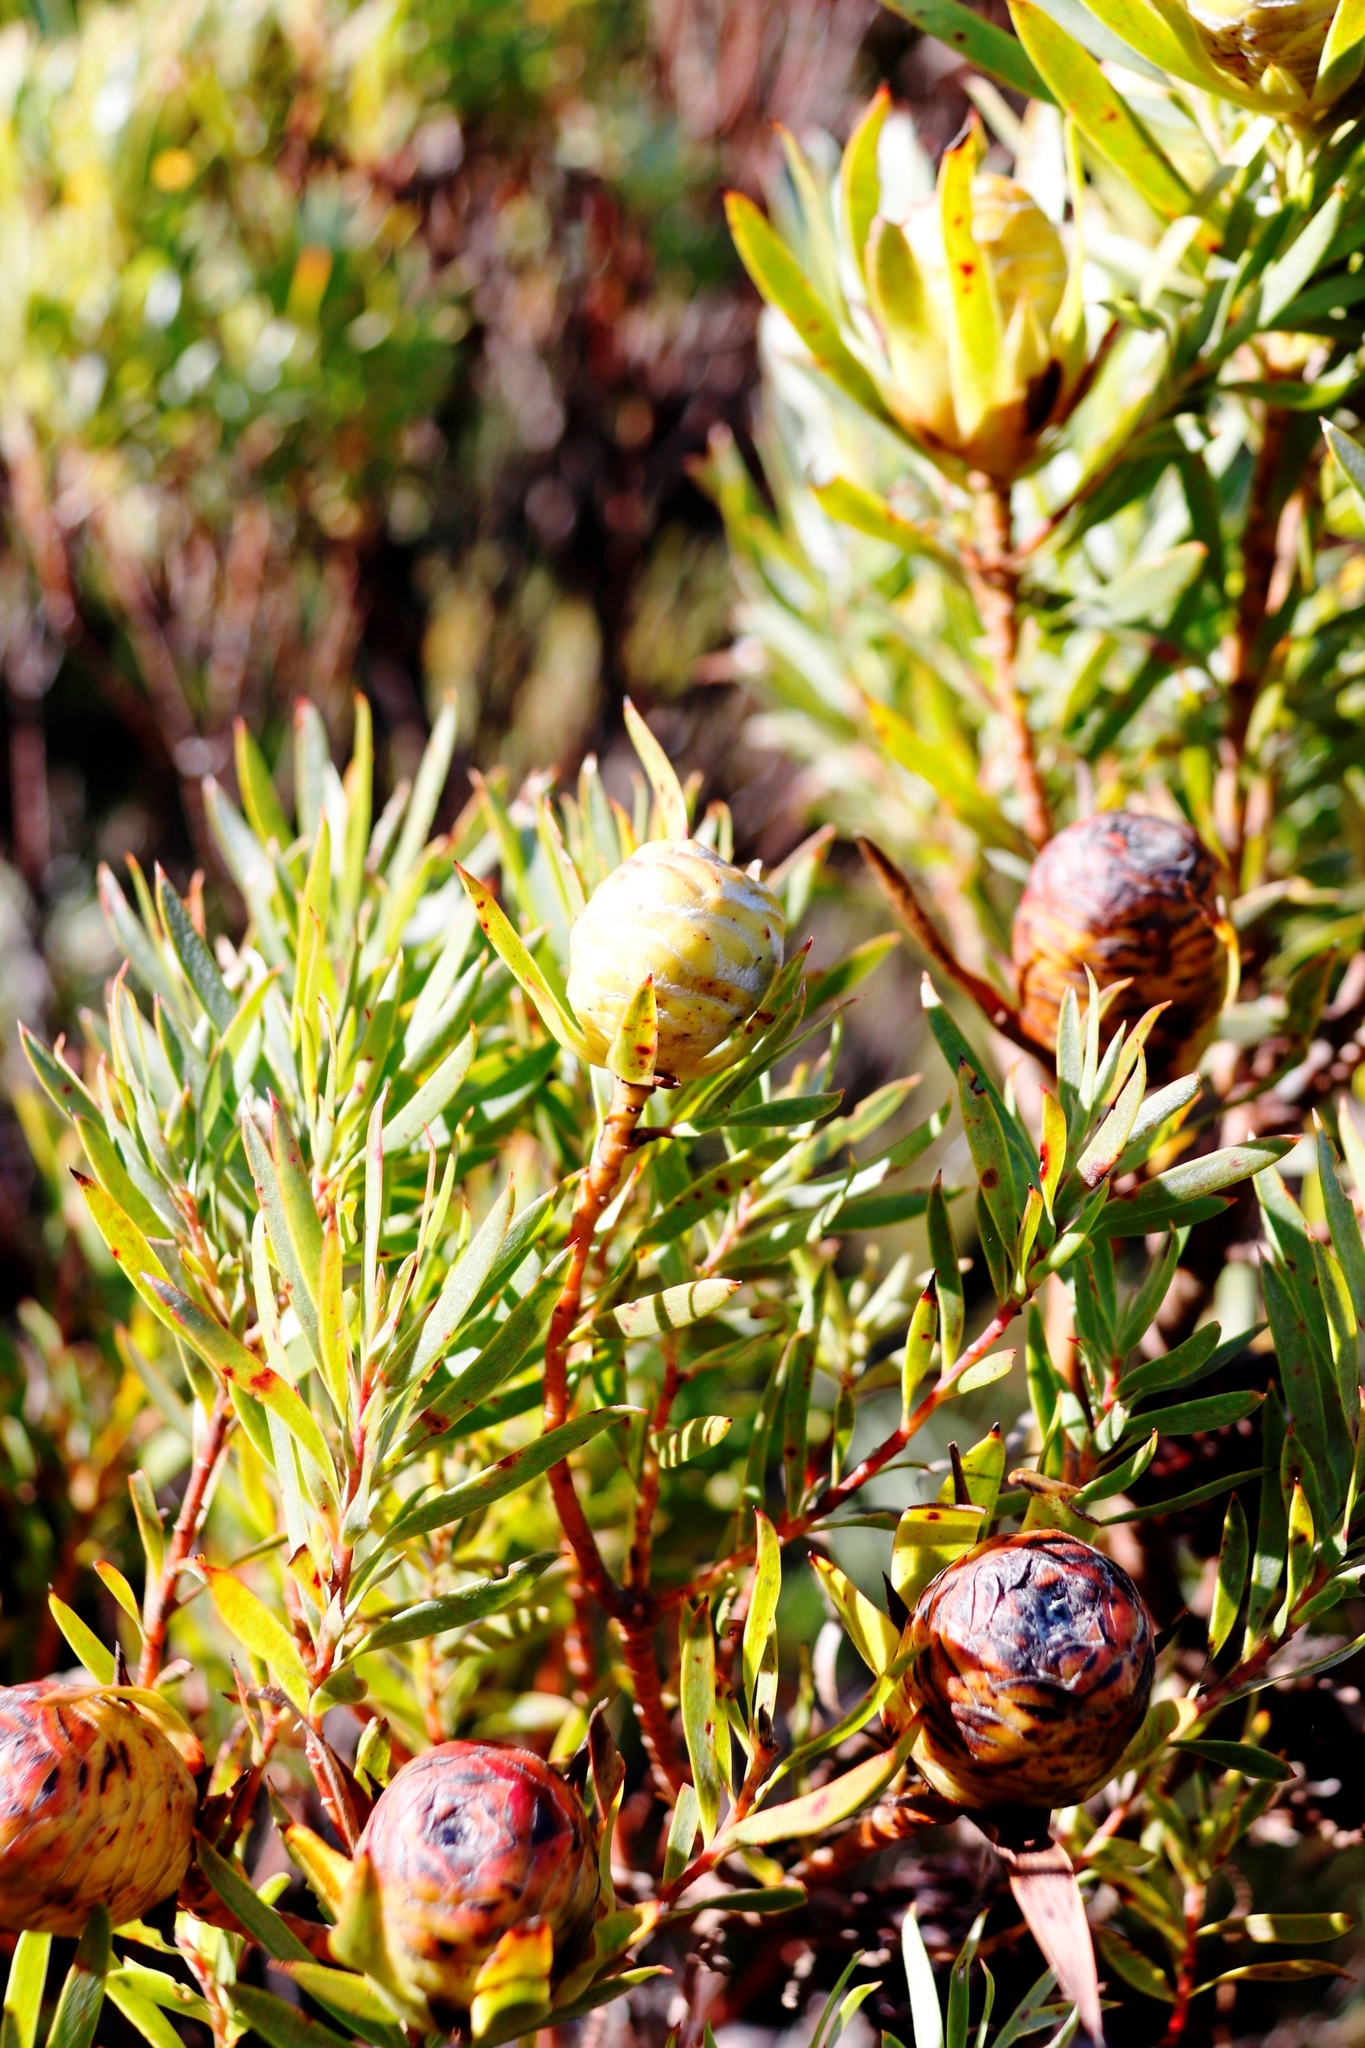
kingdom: Plantae
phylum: Tracheophyta
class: Magnoliopsida
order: Proteales
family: Proteaceae
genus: Leucadendron
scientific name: Leucadendron xanthoconus
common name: Sickle-leaf conebush
